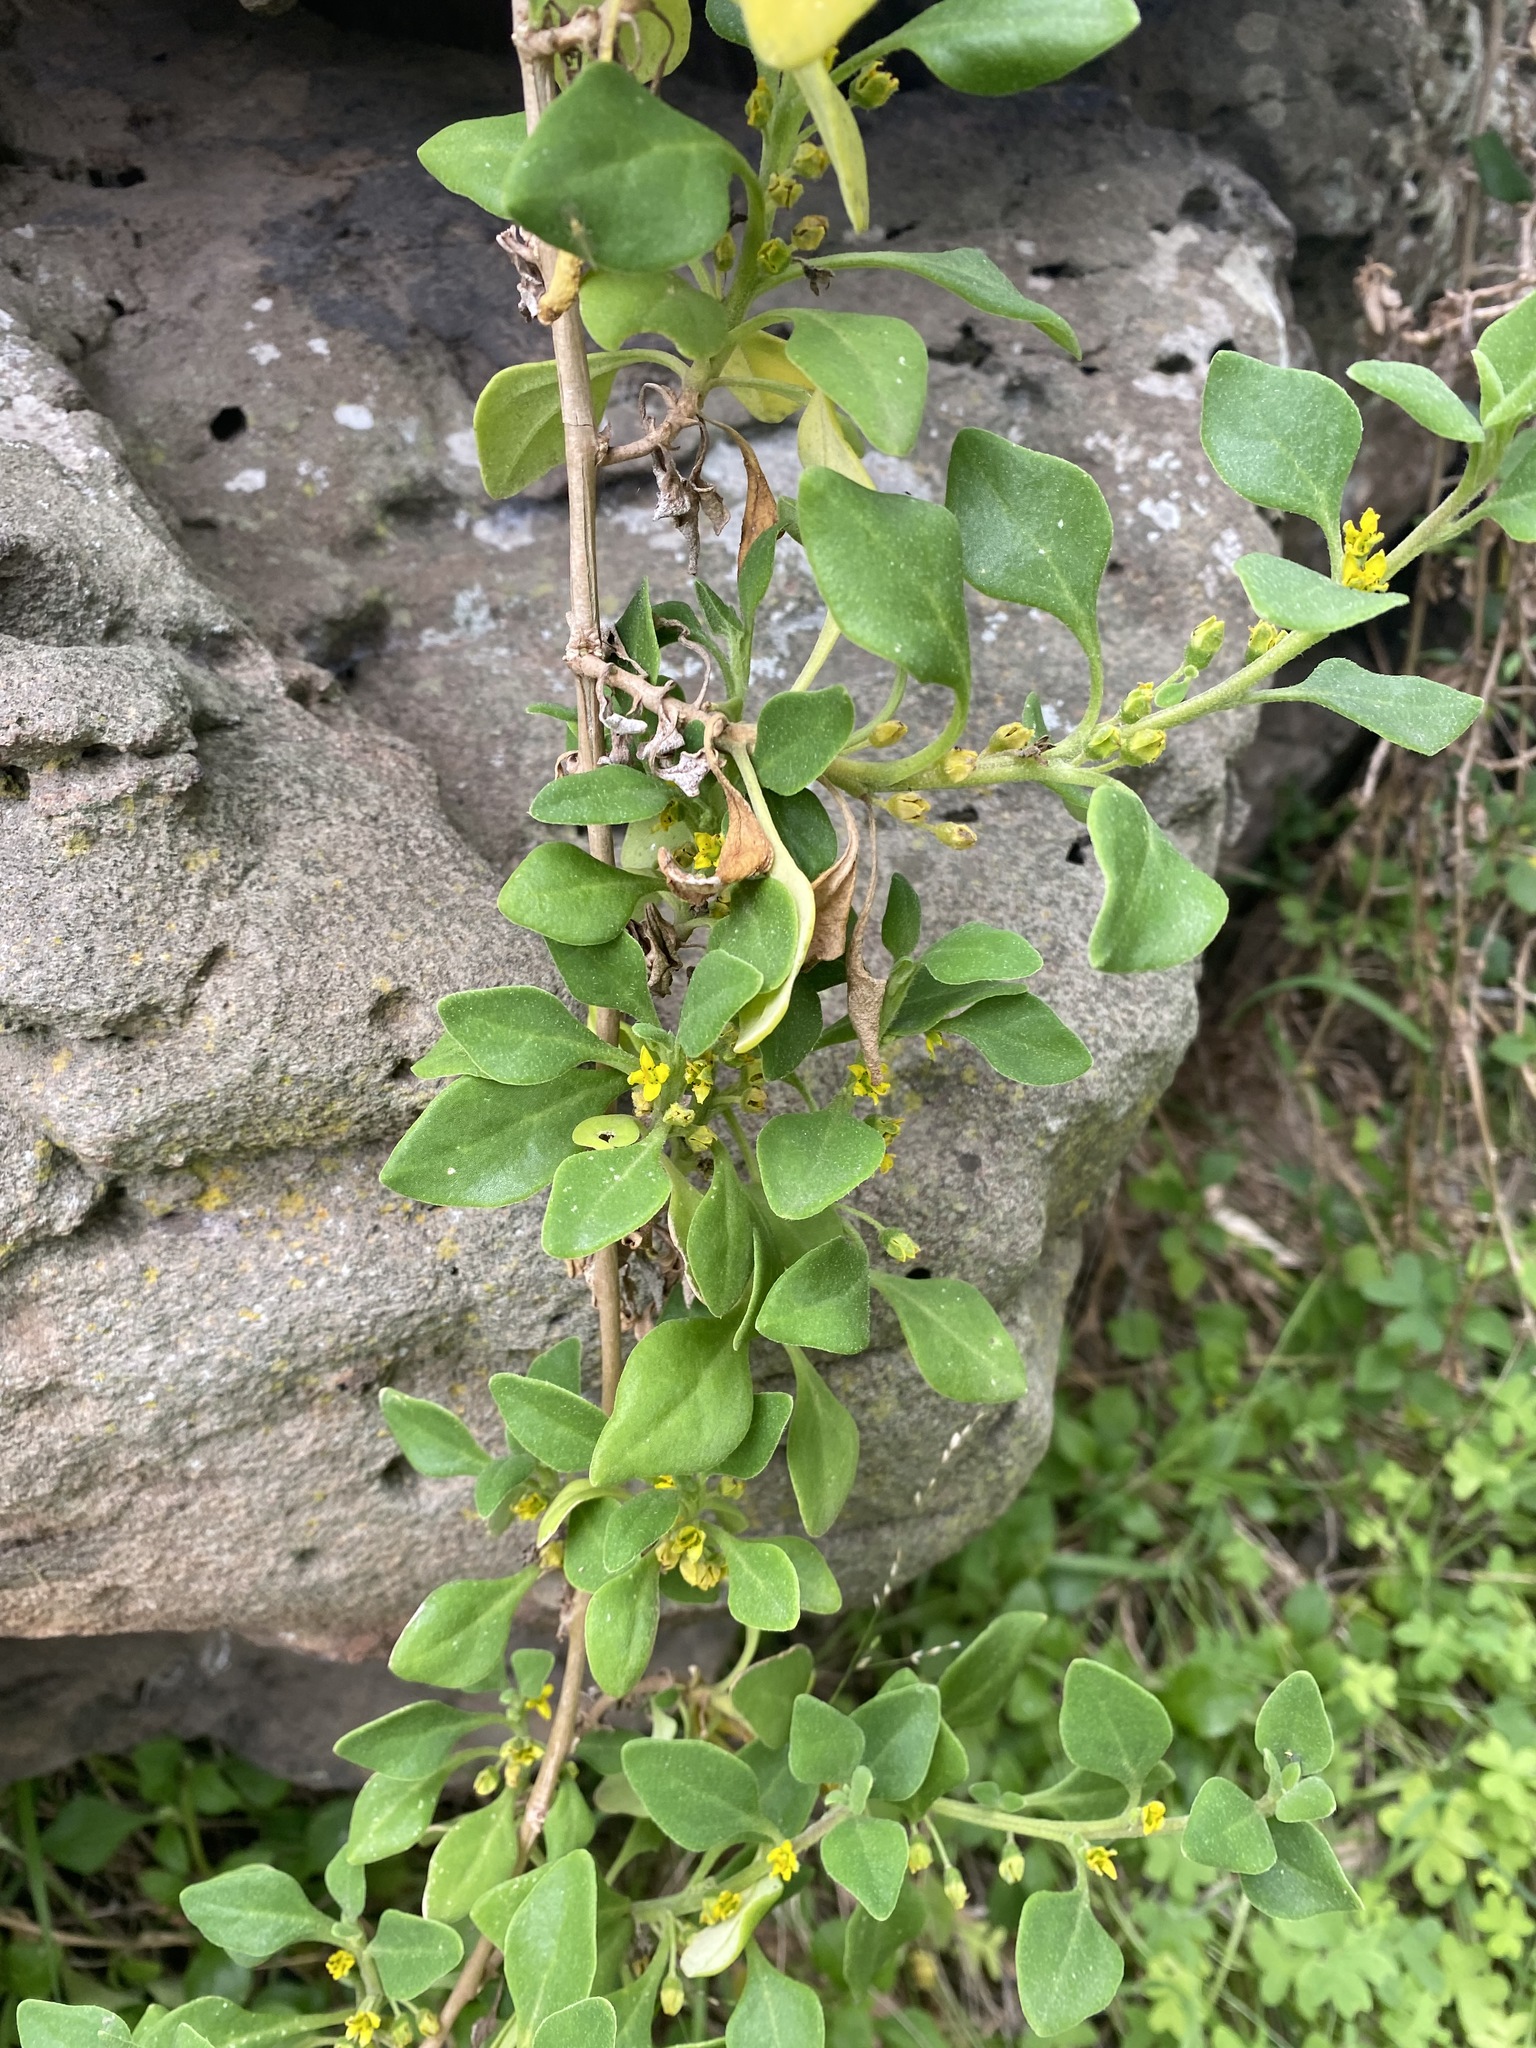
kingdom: Plantae
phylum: Tracheophyta
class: Magnoliopsida
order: Caryophyllales
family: Aizoaceae
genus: Tetragonia
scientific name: Tetragonia implexicoma
